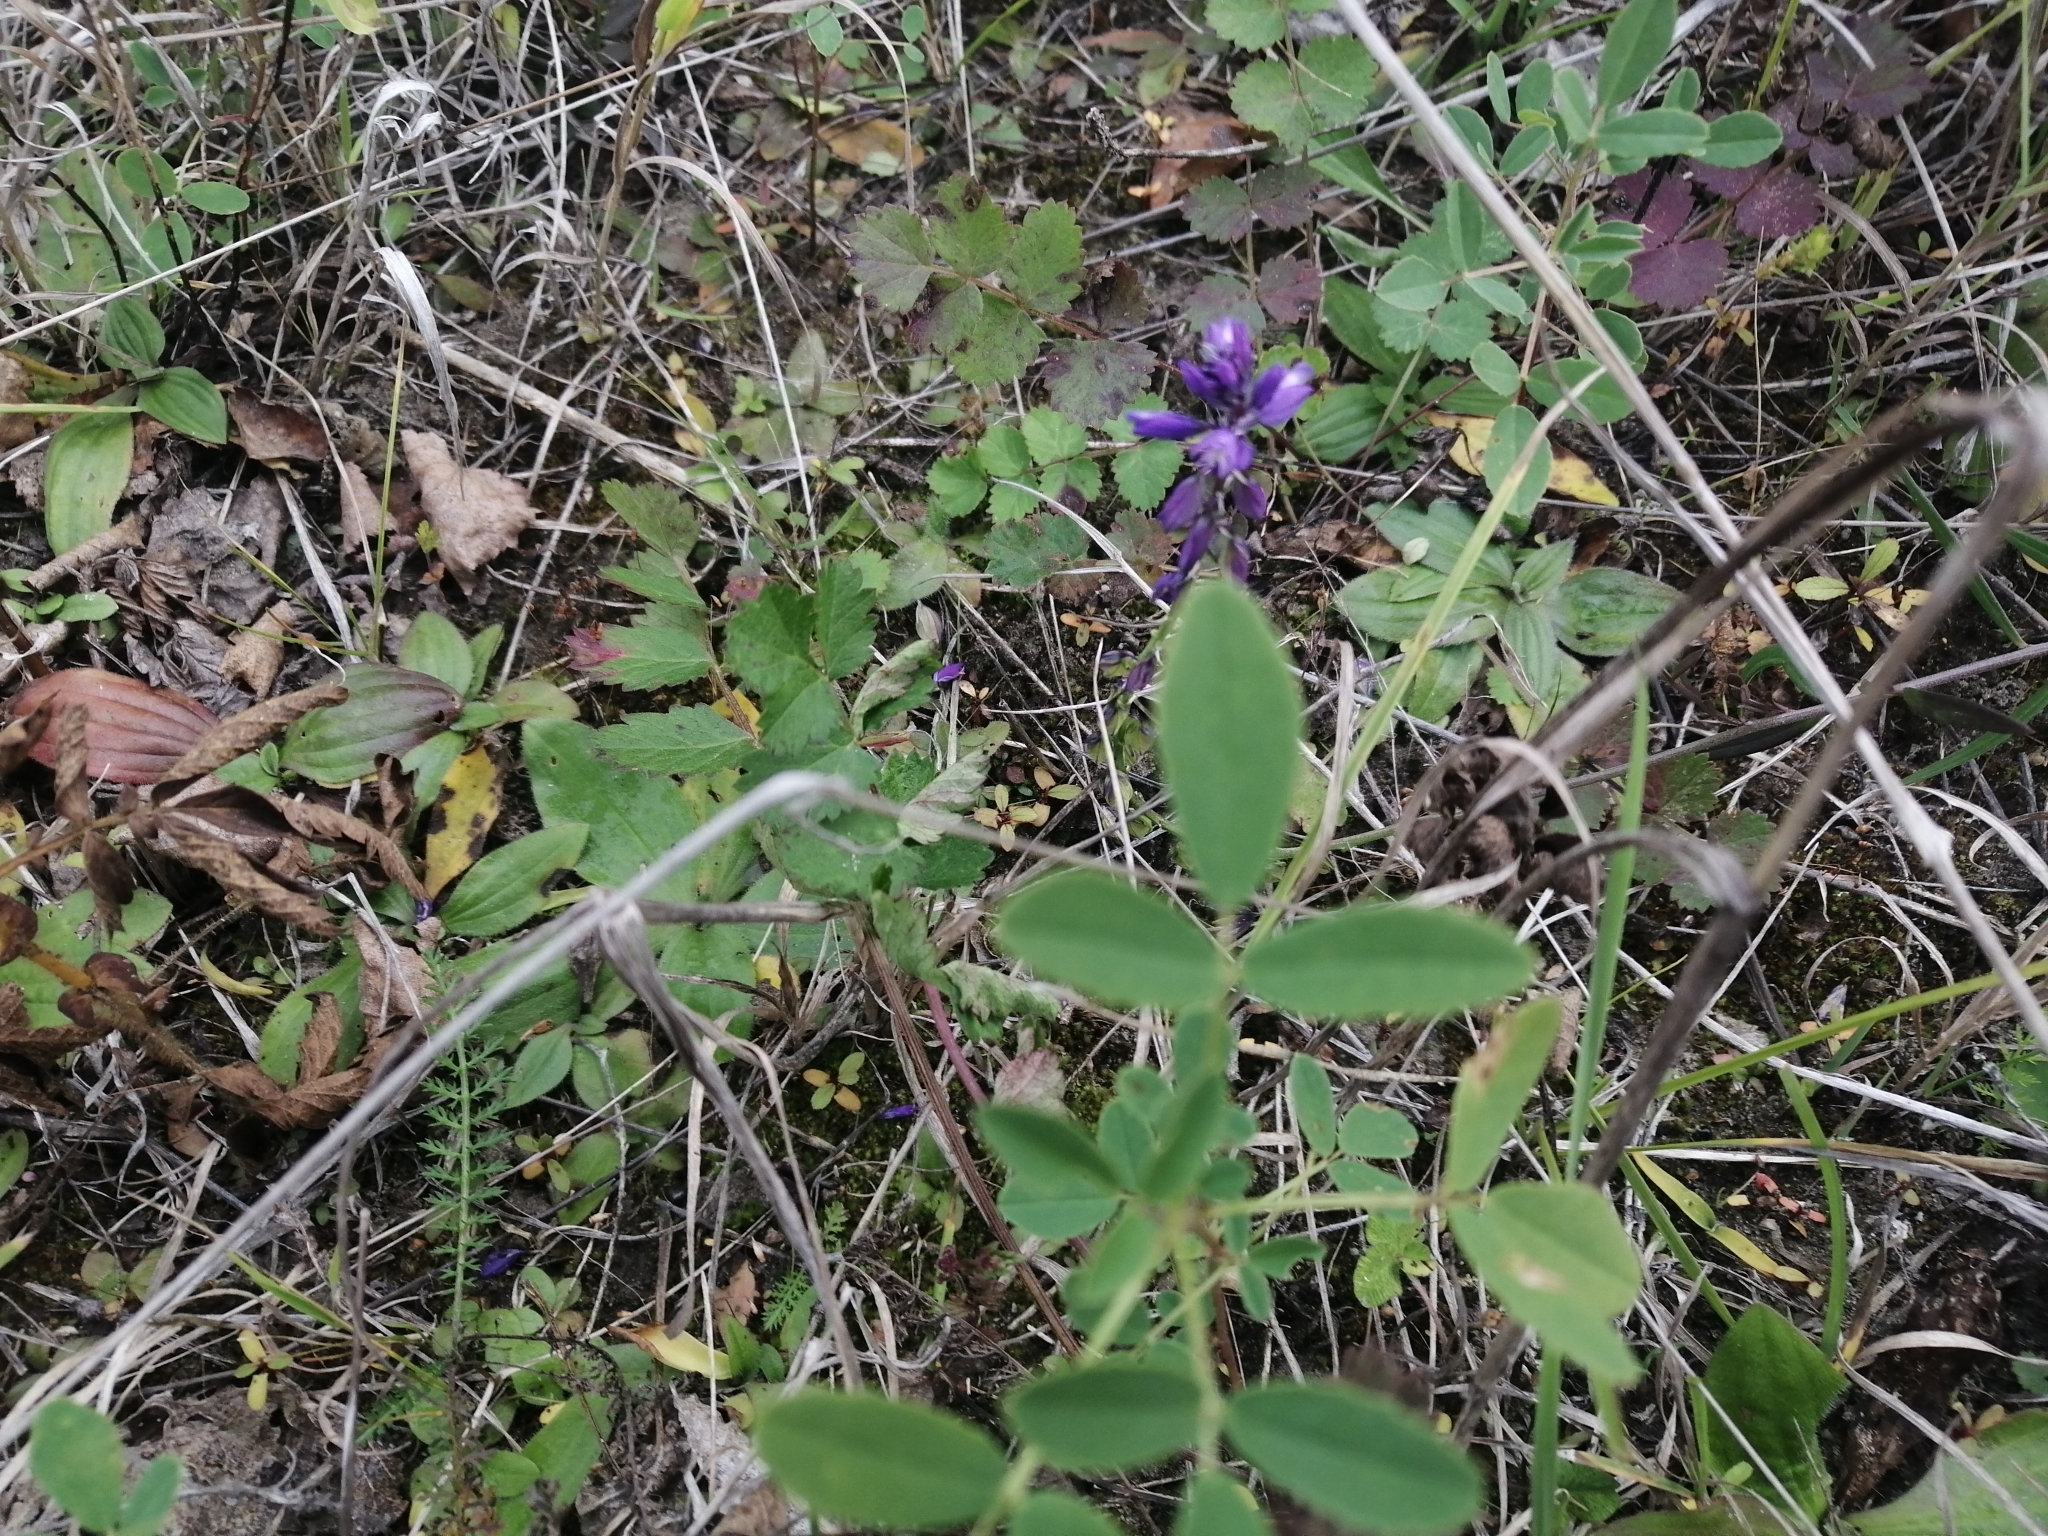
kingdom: Plantae
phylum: Tracheophyta
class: Magnoliopsida
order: Fabales
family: Polygalaceae
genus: Polygala
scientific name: Polygala comosa
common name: Tufted milkwort
